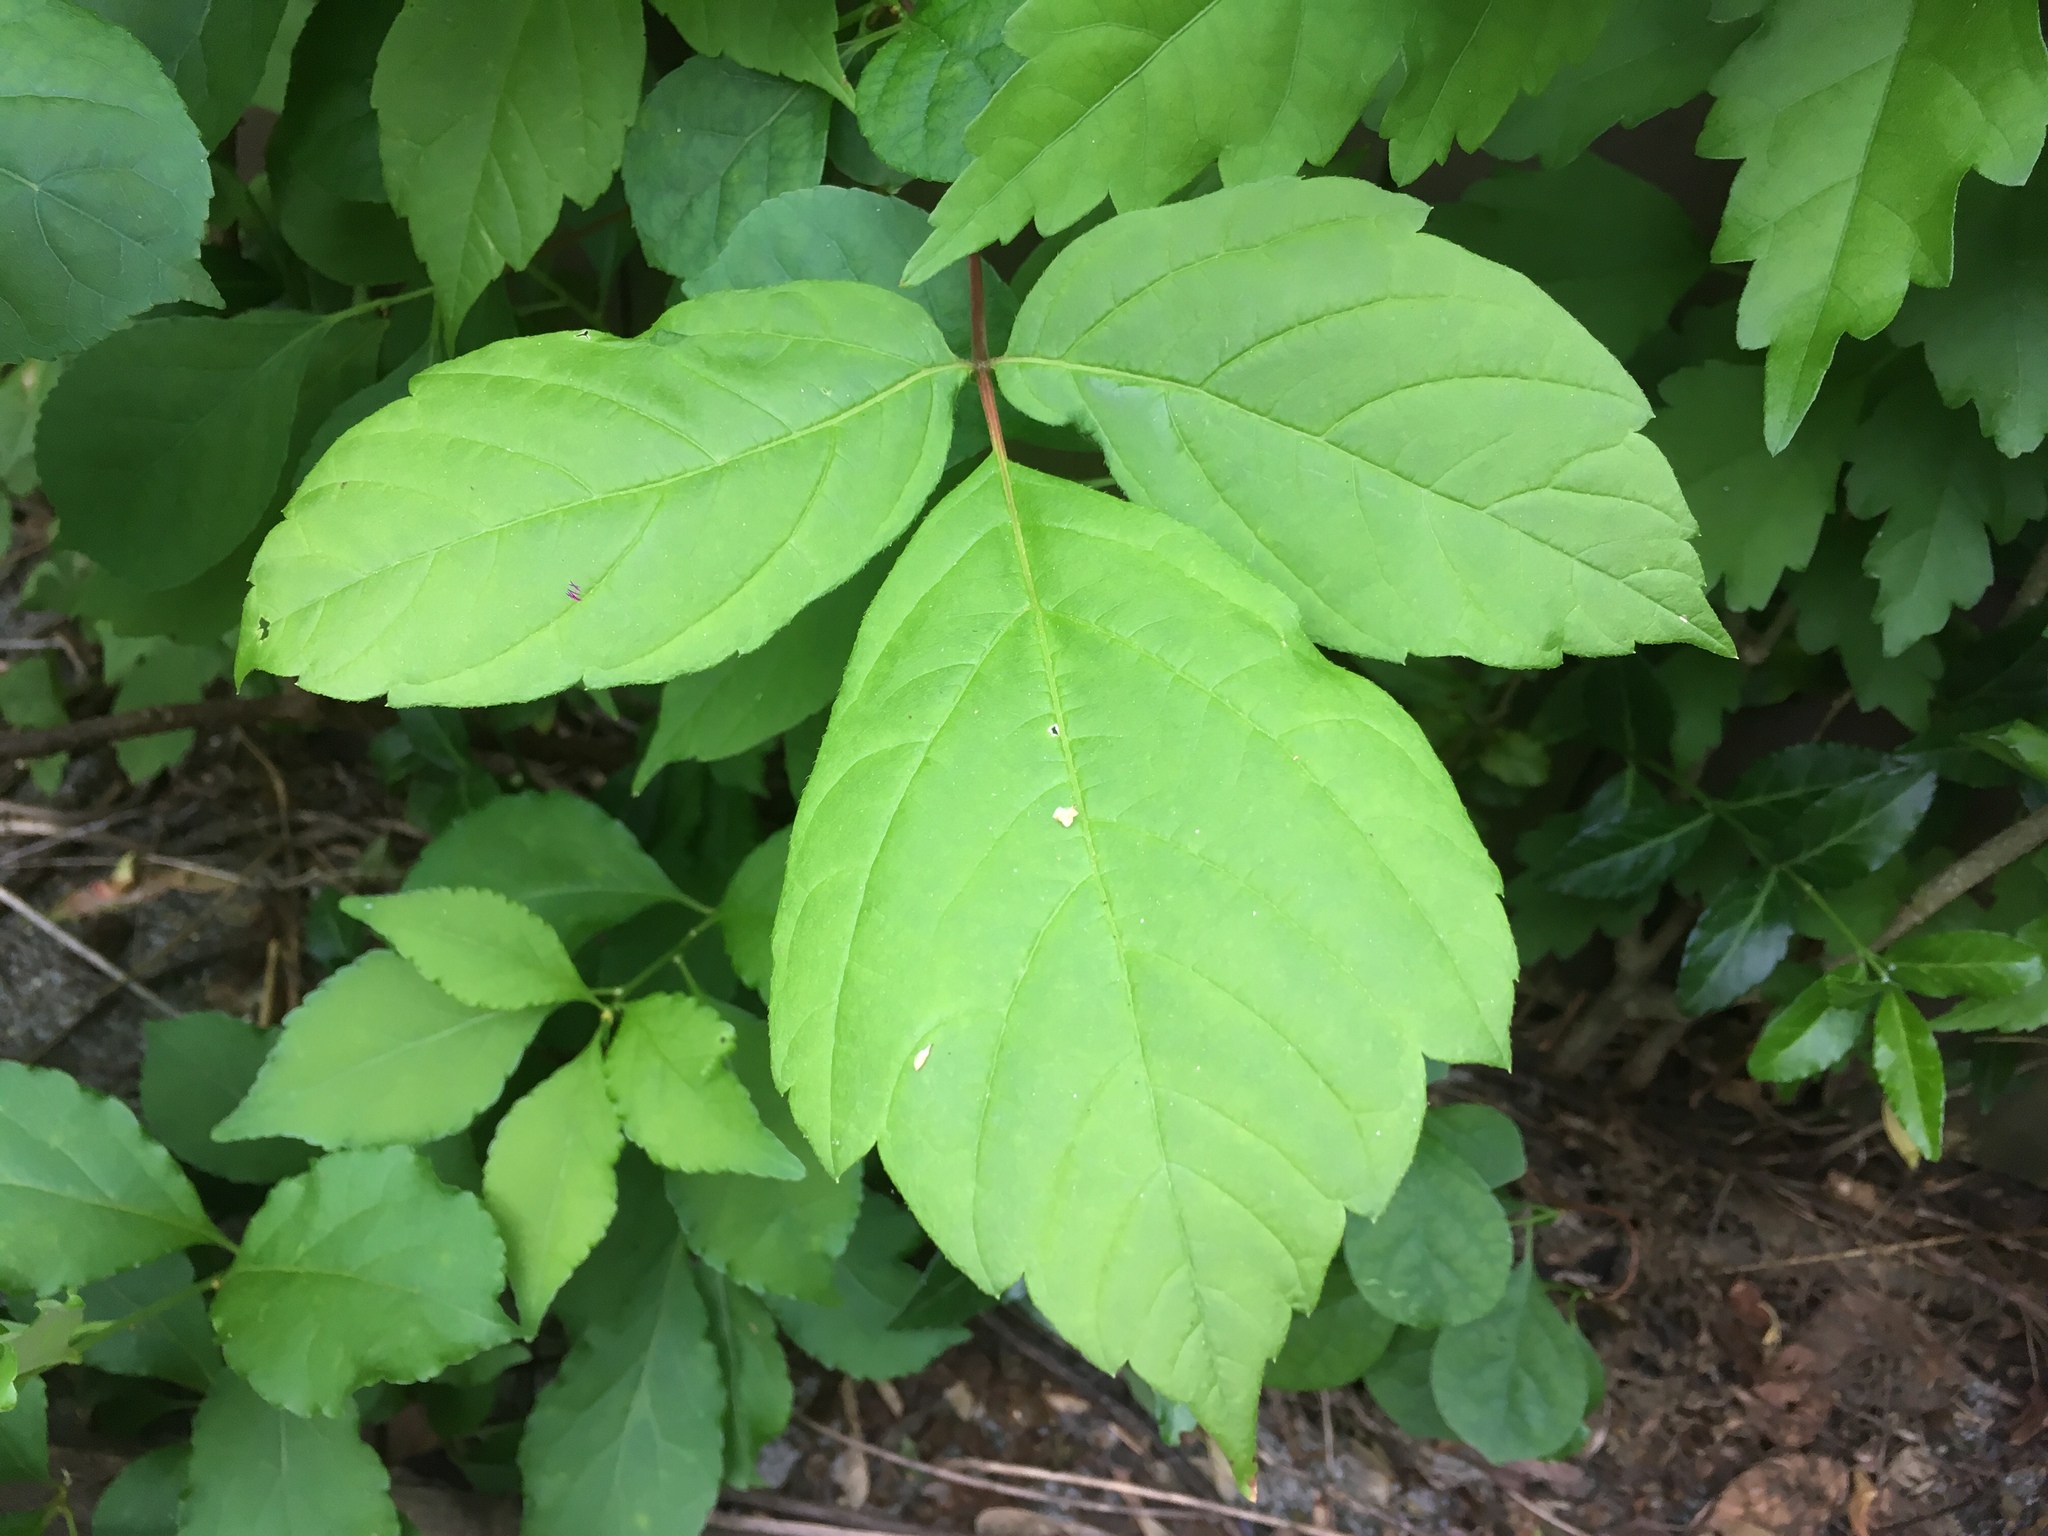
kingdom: Plantae
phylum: Tracheophyta
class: Magnoliopsida
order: Sapindales
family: Anacardiaceae
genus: Toxicodendron
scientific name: Toxicodendron radicans
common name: Poison ivy
